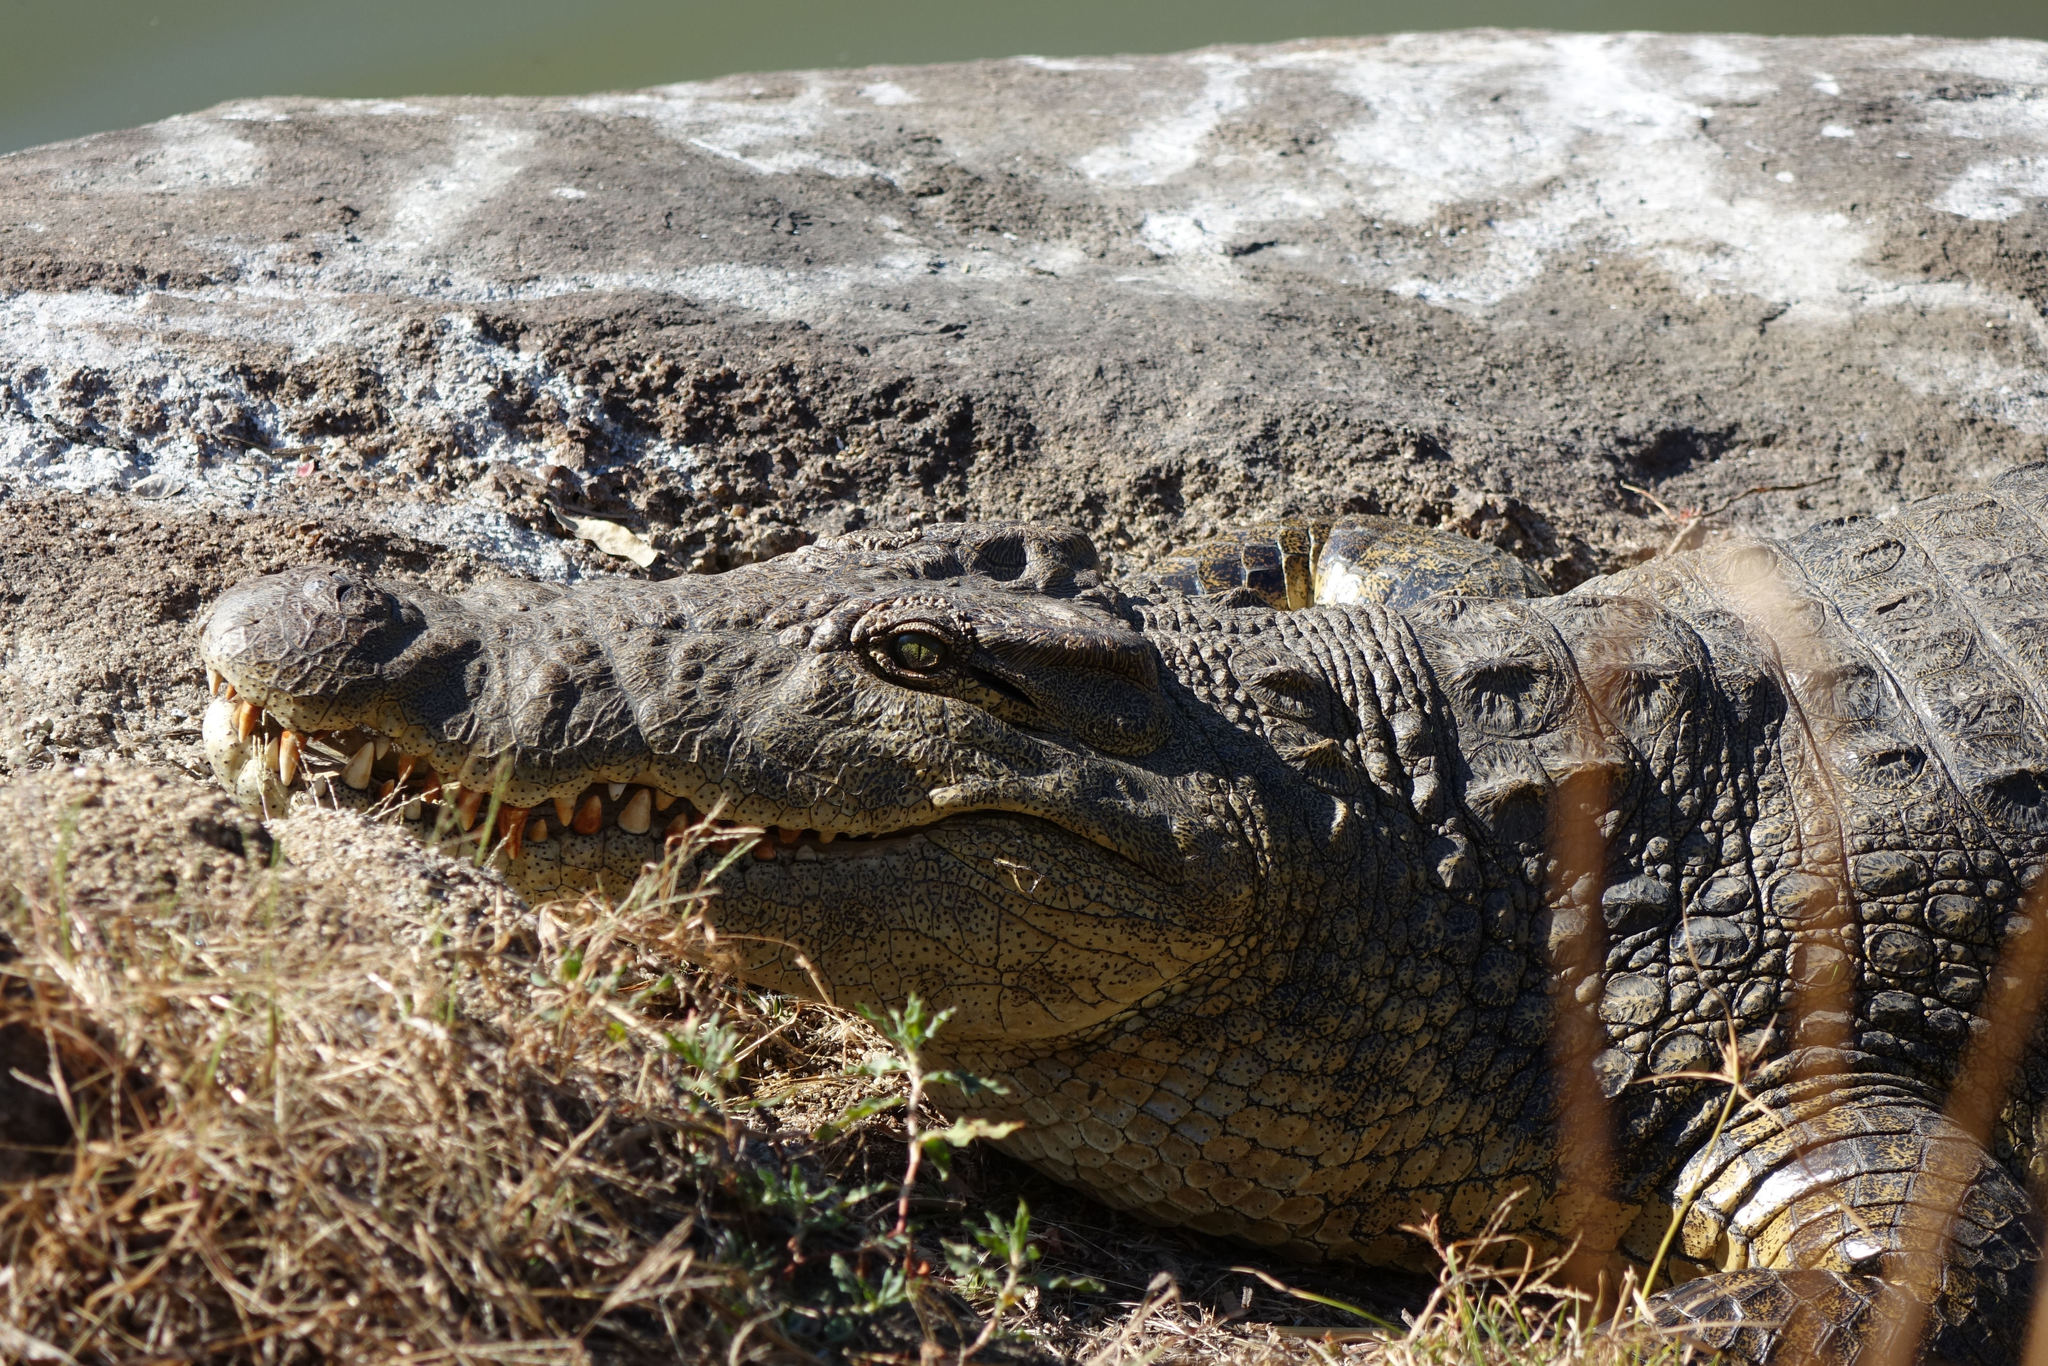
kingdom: Animalia
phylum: Chordata
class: Crocodylia
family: Crocodylidae
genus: Crocodylus
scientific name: Crocodylus niloticus
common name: Nile crocodile
